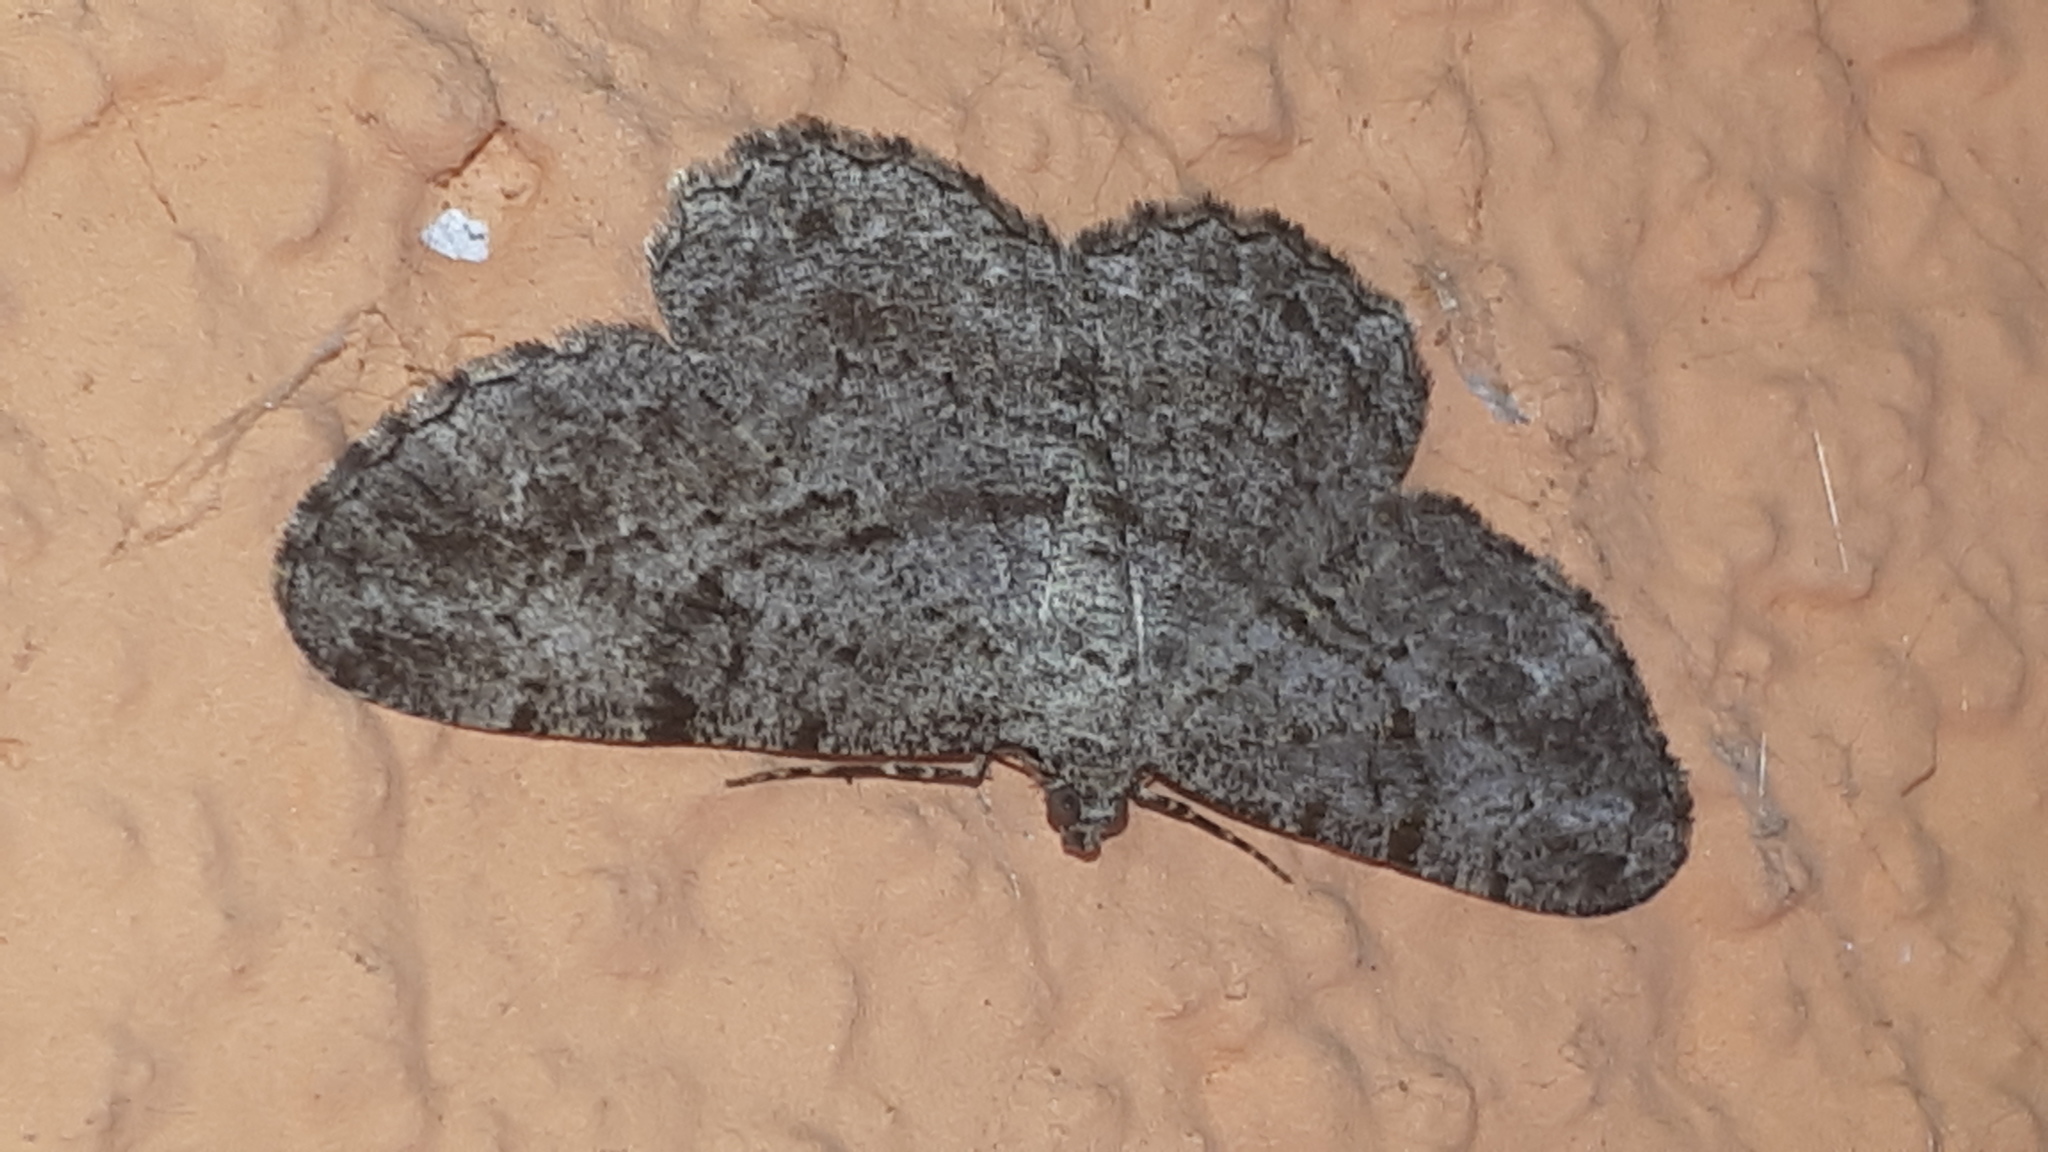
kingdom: Animalia
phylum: Arthropoda
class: Insecta
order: Lepidoptera
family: Geometridae
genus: Peribatodes
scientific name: Peribatodes rhomboidaria
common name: Willow beauty
